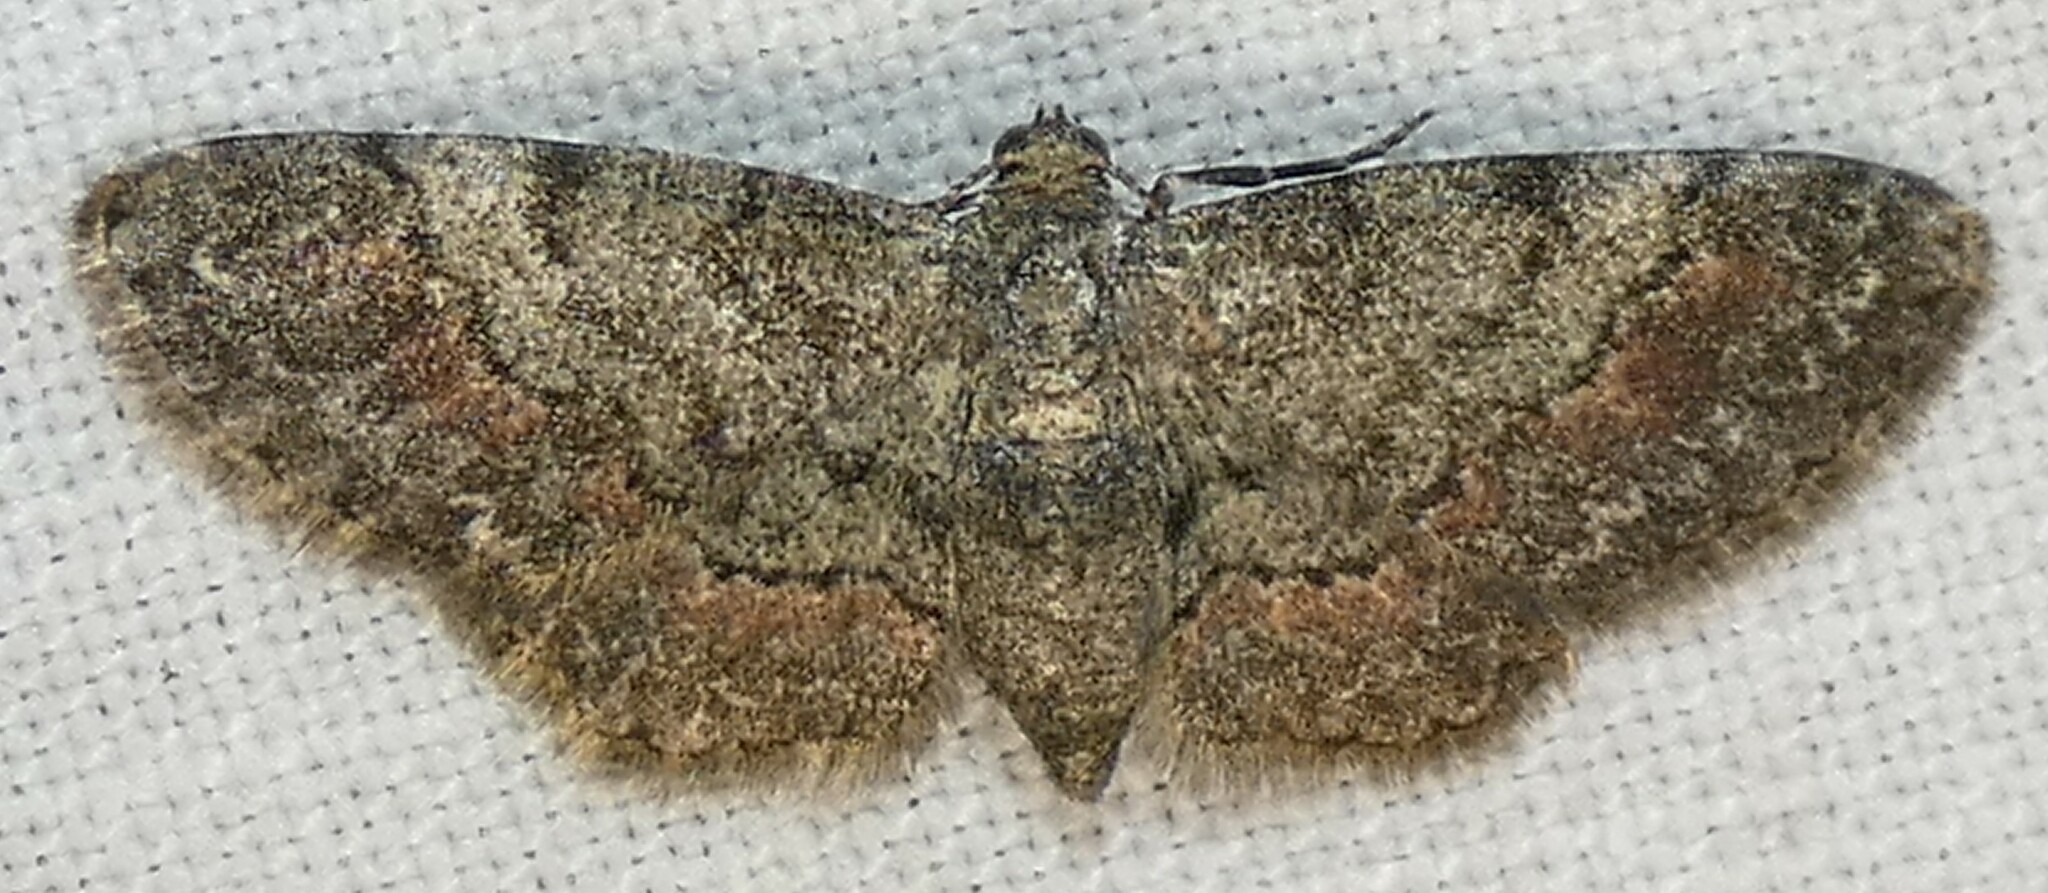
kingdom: Animalia
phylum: Arthropoda
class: Insecta
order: Lepidoptera
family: Geometridae
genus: Glenoides
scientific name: Glenoides texanaria
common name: Texas gray
